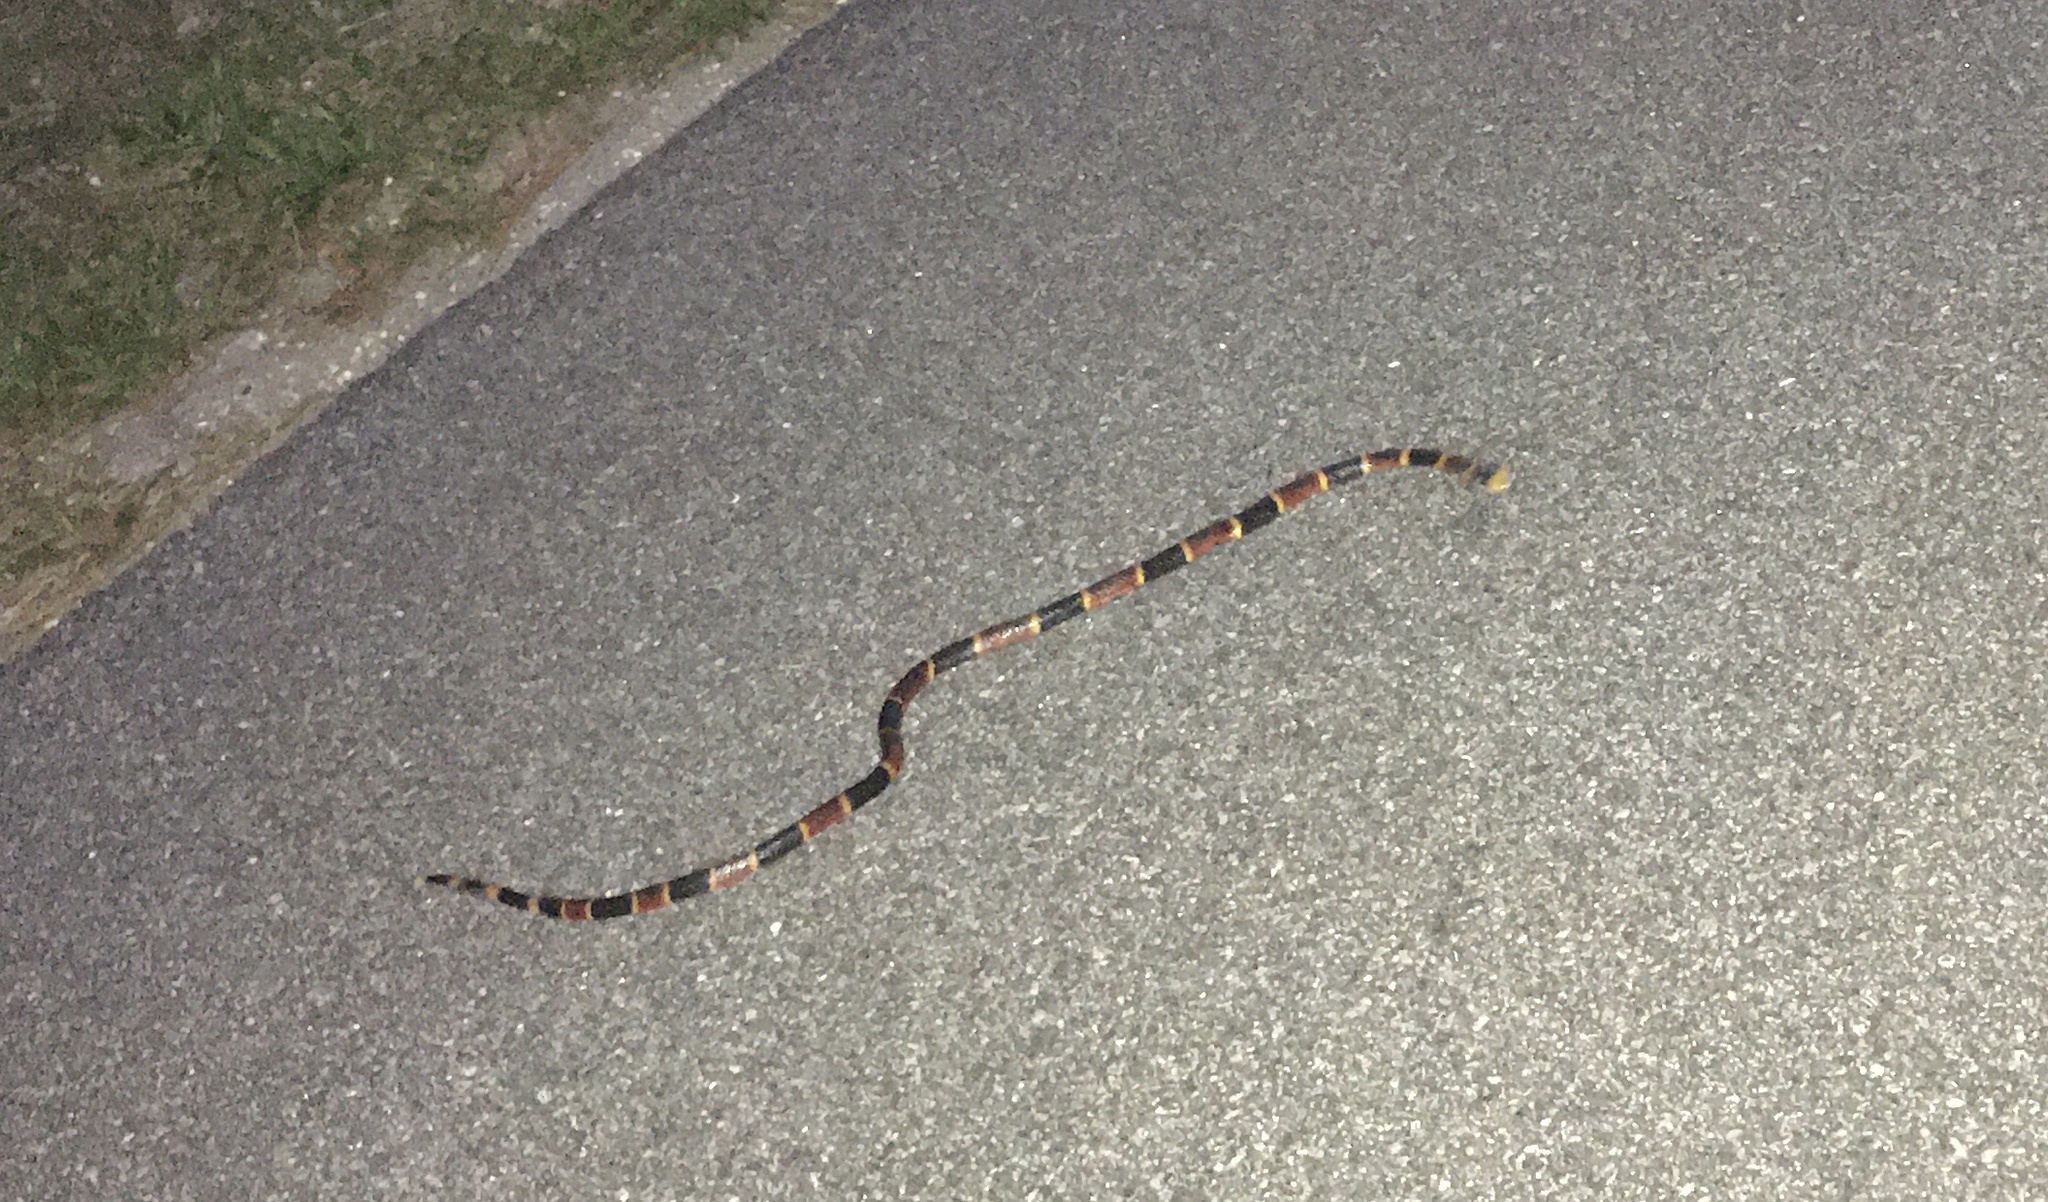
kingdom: Animalia
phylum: Chordata
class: Squamata
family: Elapidae
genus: Micrurus
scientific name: Micrurus fulvius
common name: Eastern coral snake
